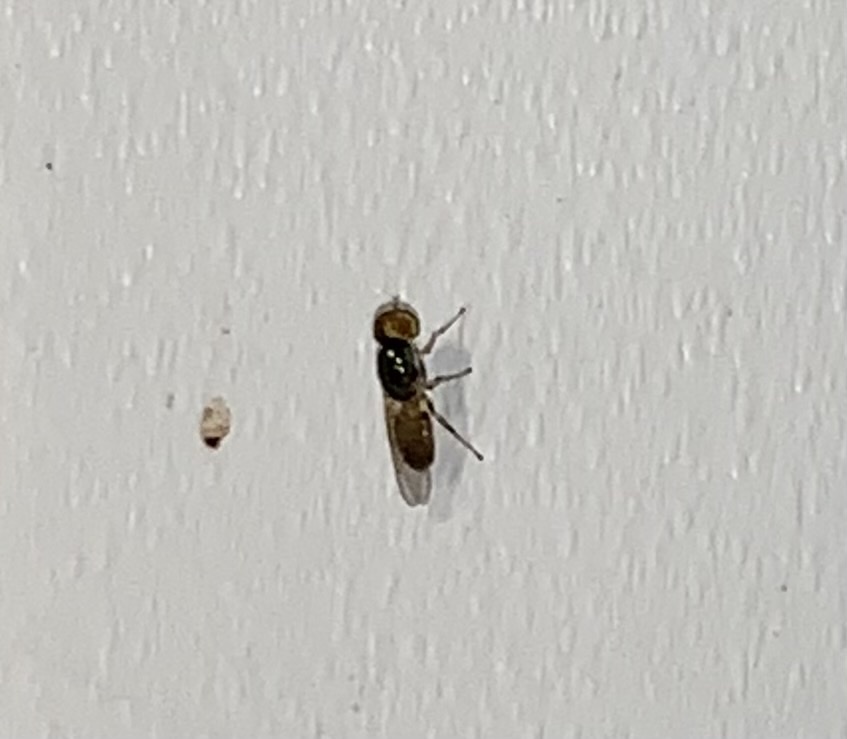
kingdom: Animalia
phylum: Arthropoda
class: Insecta
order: Diptera
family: Stratiomyidae
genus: Microchrysa
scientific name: Microchrysa flaviventris
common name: Soldier fly
